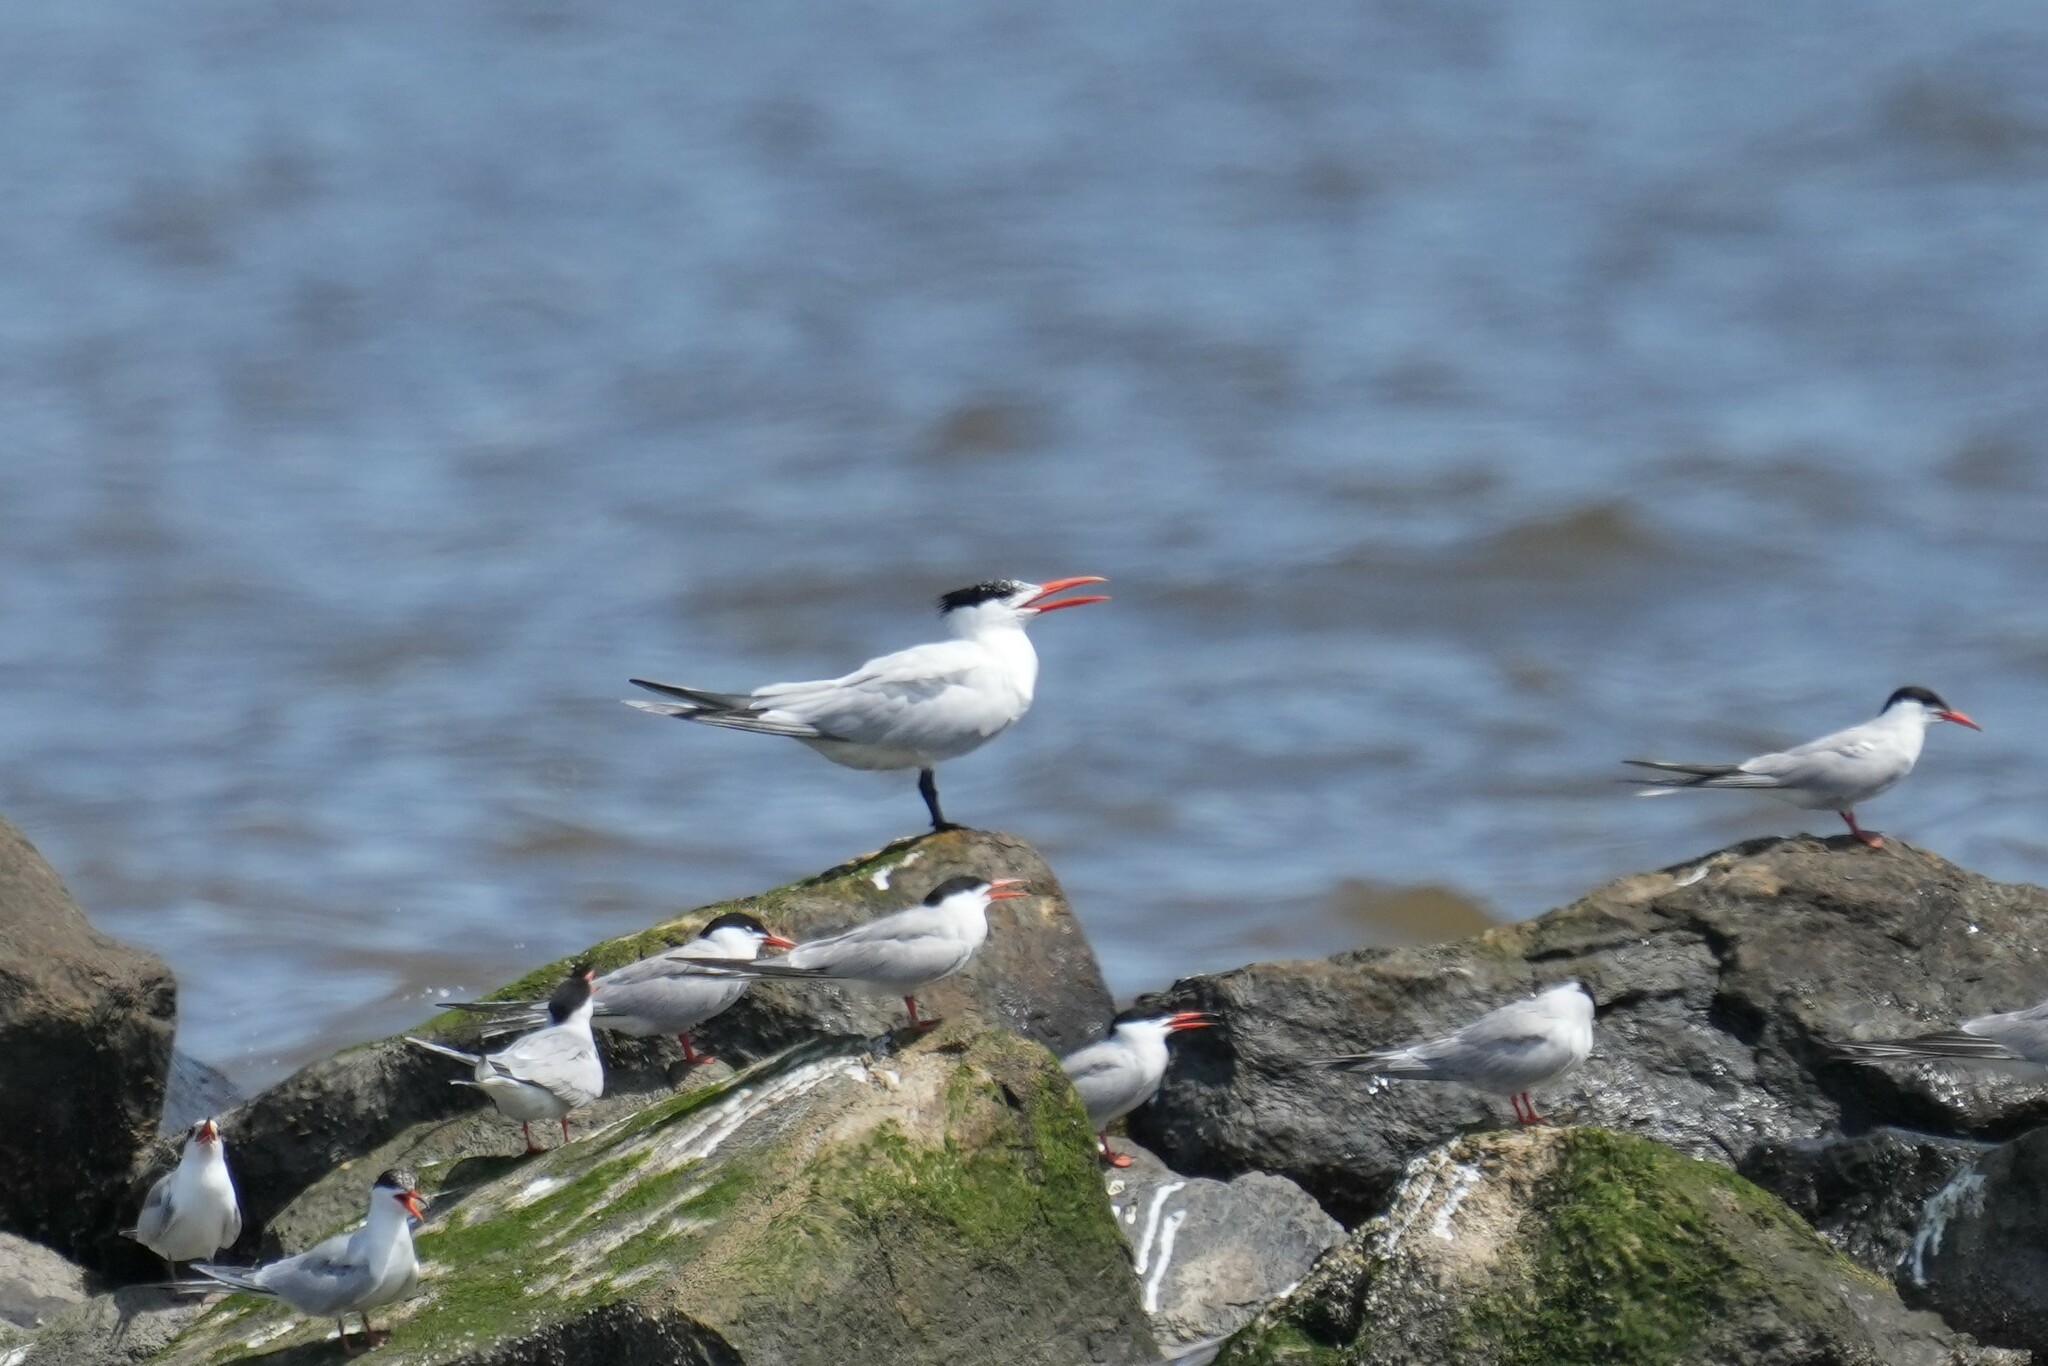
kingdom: Animalia
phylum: Chordata
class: Aves
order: Charadriiformes
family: Laridae
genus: Thalasseus
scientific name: Thalasseus maximus
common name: Royal tern
